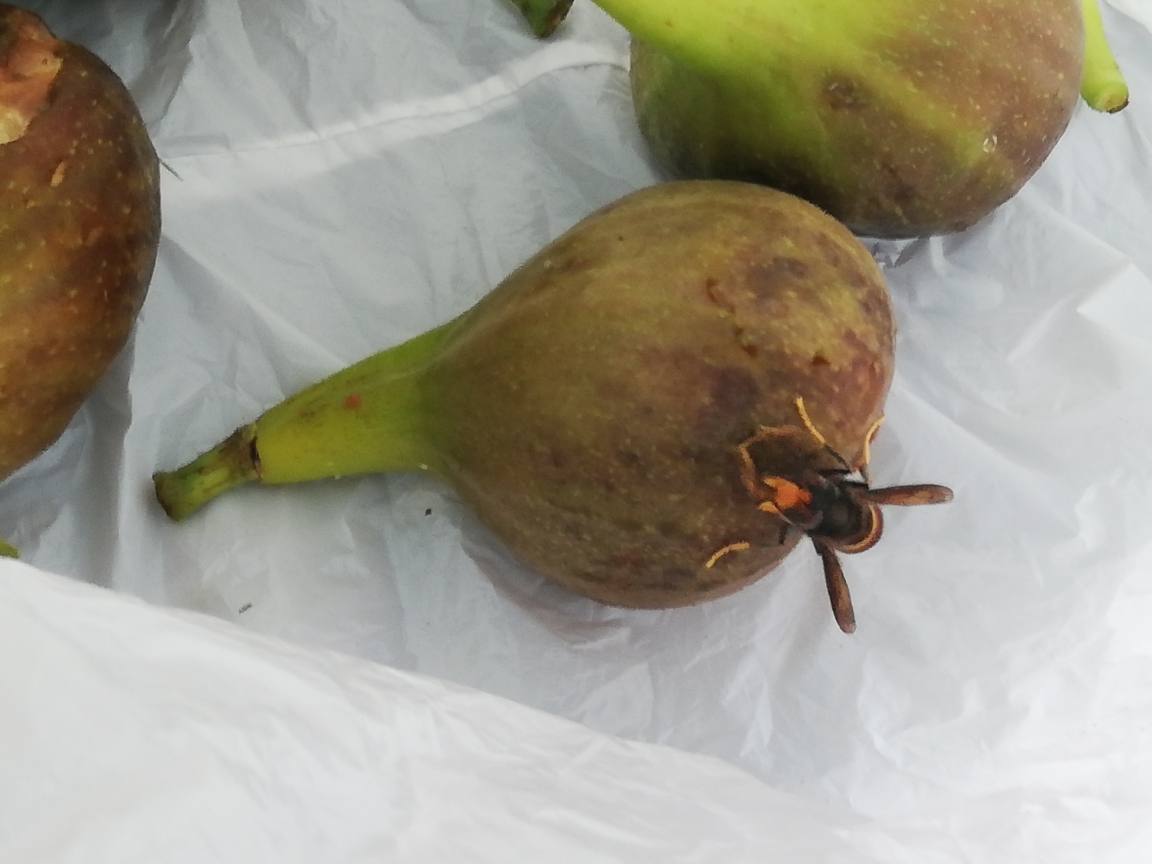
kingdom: Animalia
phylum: Arthropoda
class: Insecta
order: Hymenoptera
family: Vespidae
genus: Vespa
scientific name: Vespa velutina
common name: Asian hornet
